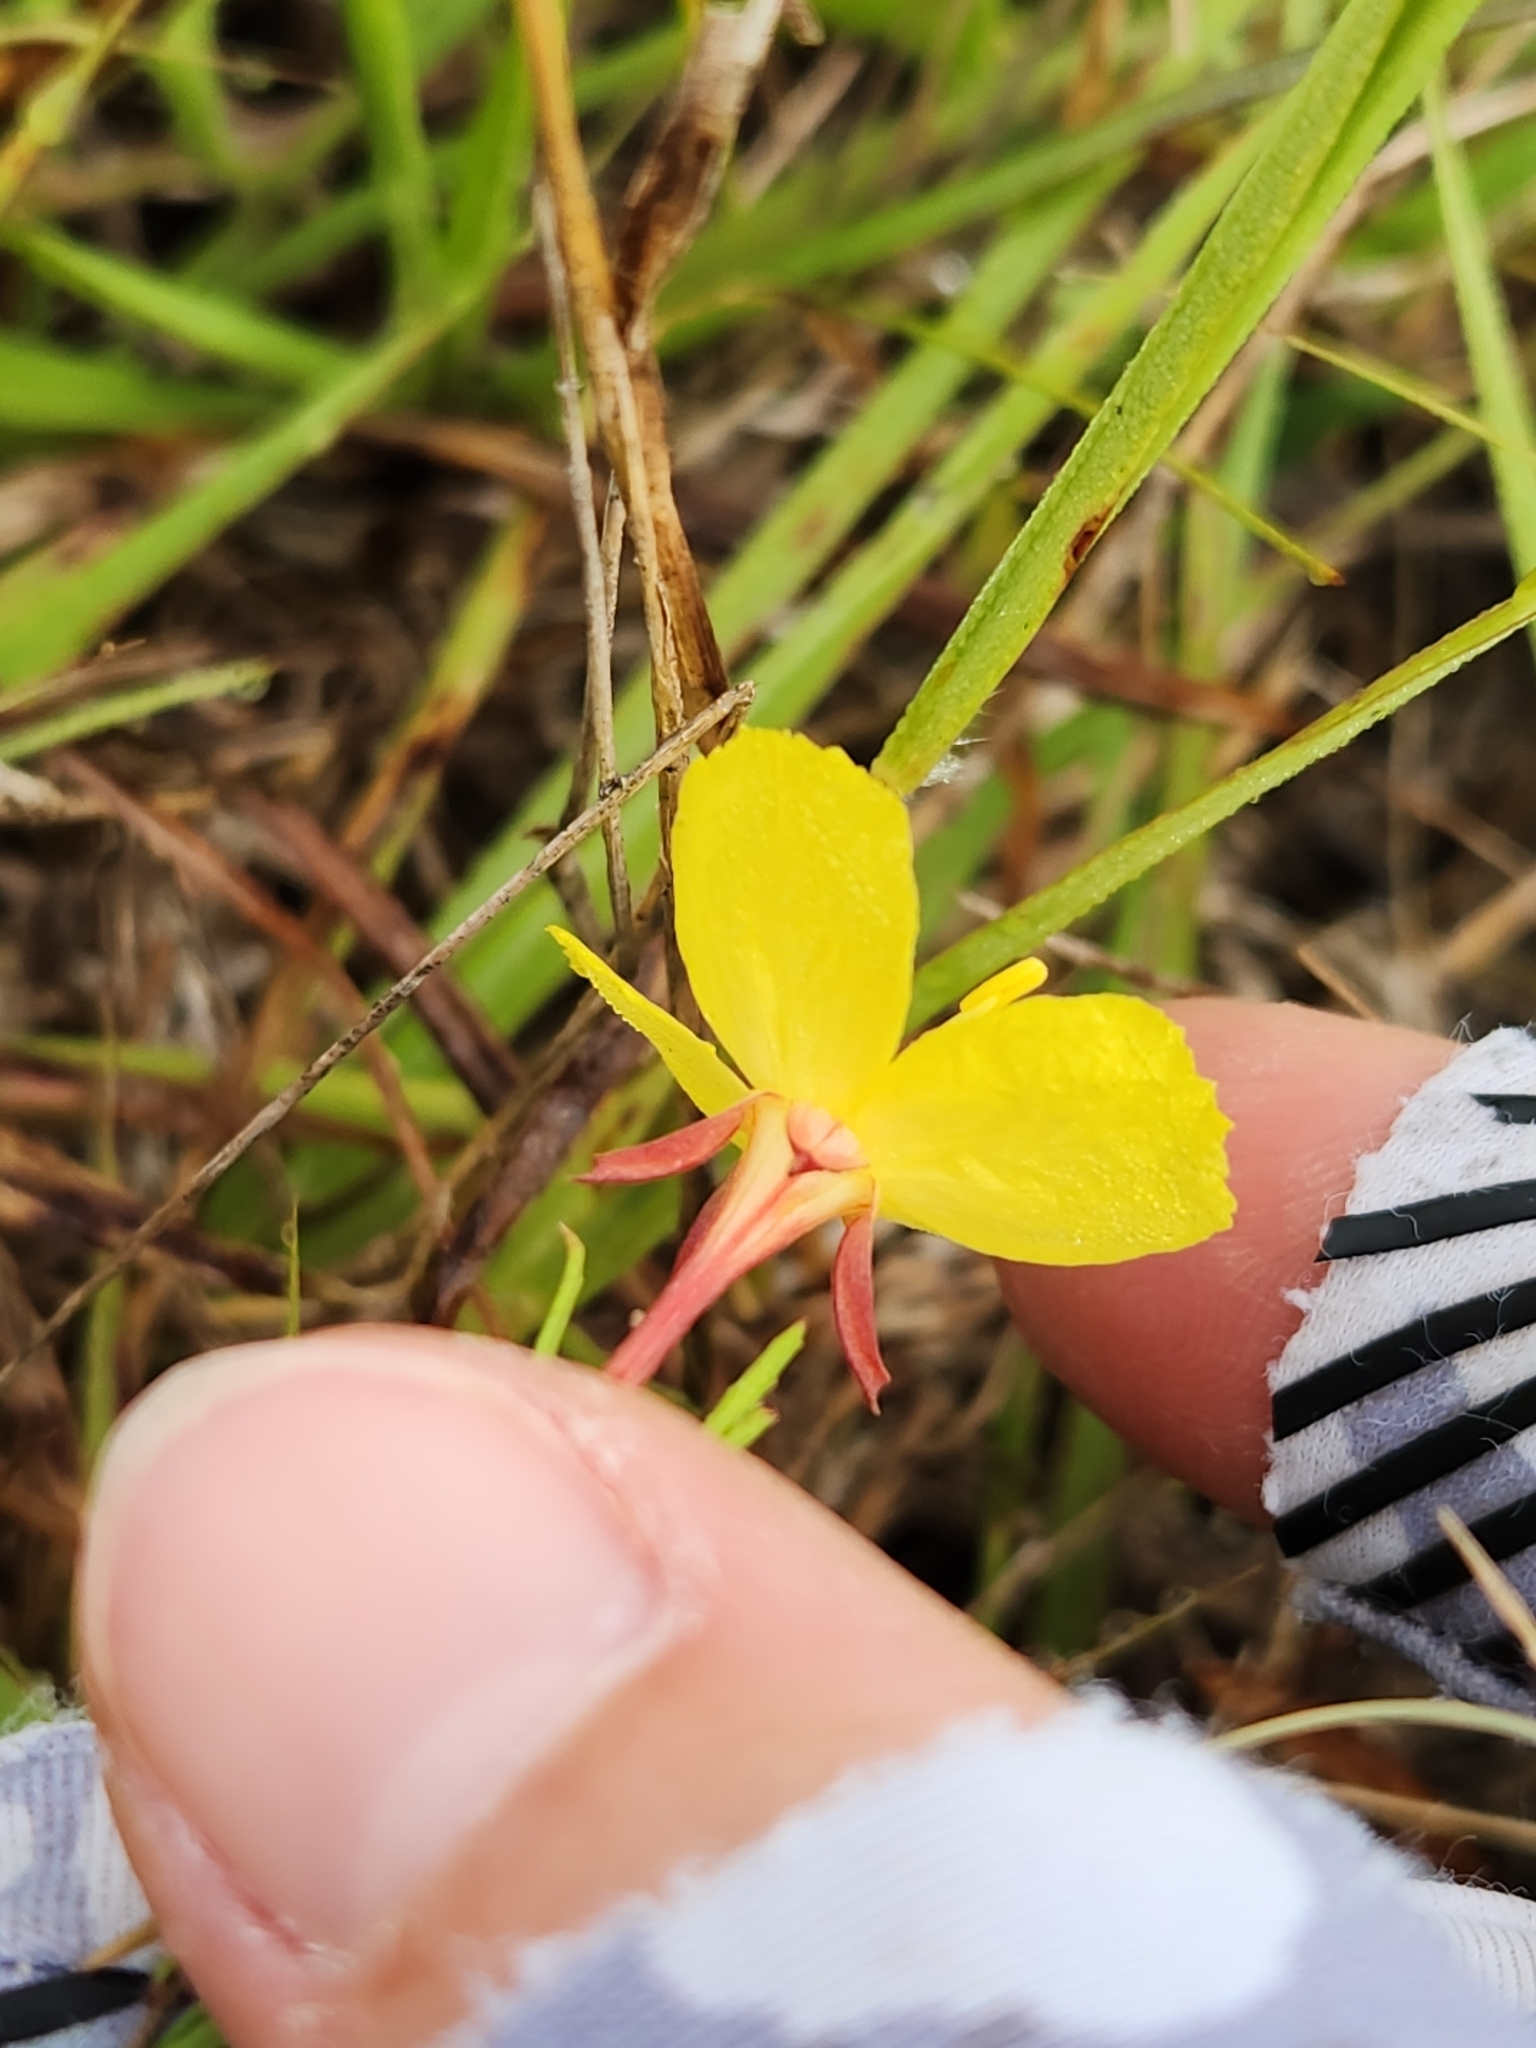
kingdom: Plantae
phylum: Tracheophyta
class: Magnoliopsida
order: Myrtales
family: Onagraceae
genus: Oenothera
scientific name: Oenothera
